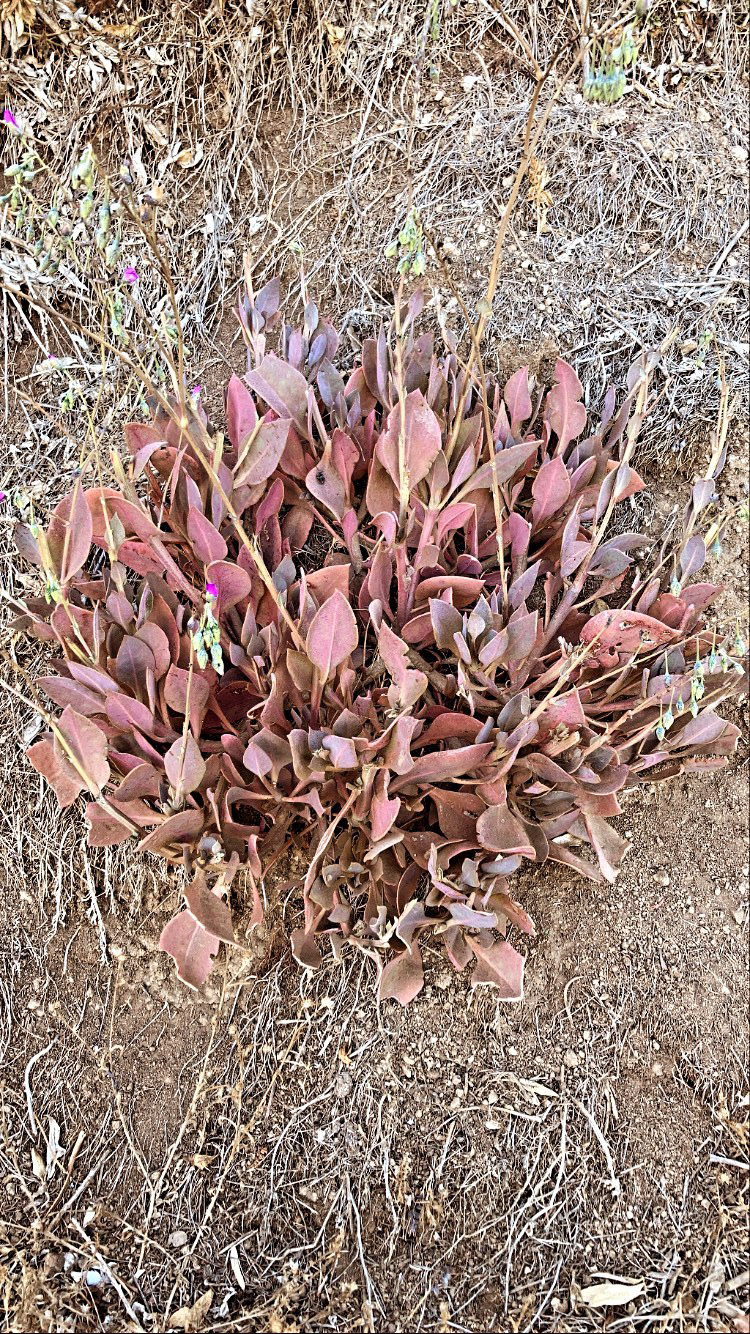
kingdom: Plantae
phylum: Tracheophyta
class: Magnoliopsida
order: Caryophyllales
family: Montiaceae
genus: Cistanthe
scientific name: Cistanthe grandiflora
